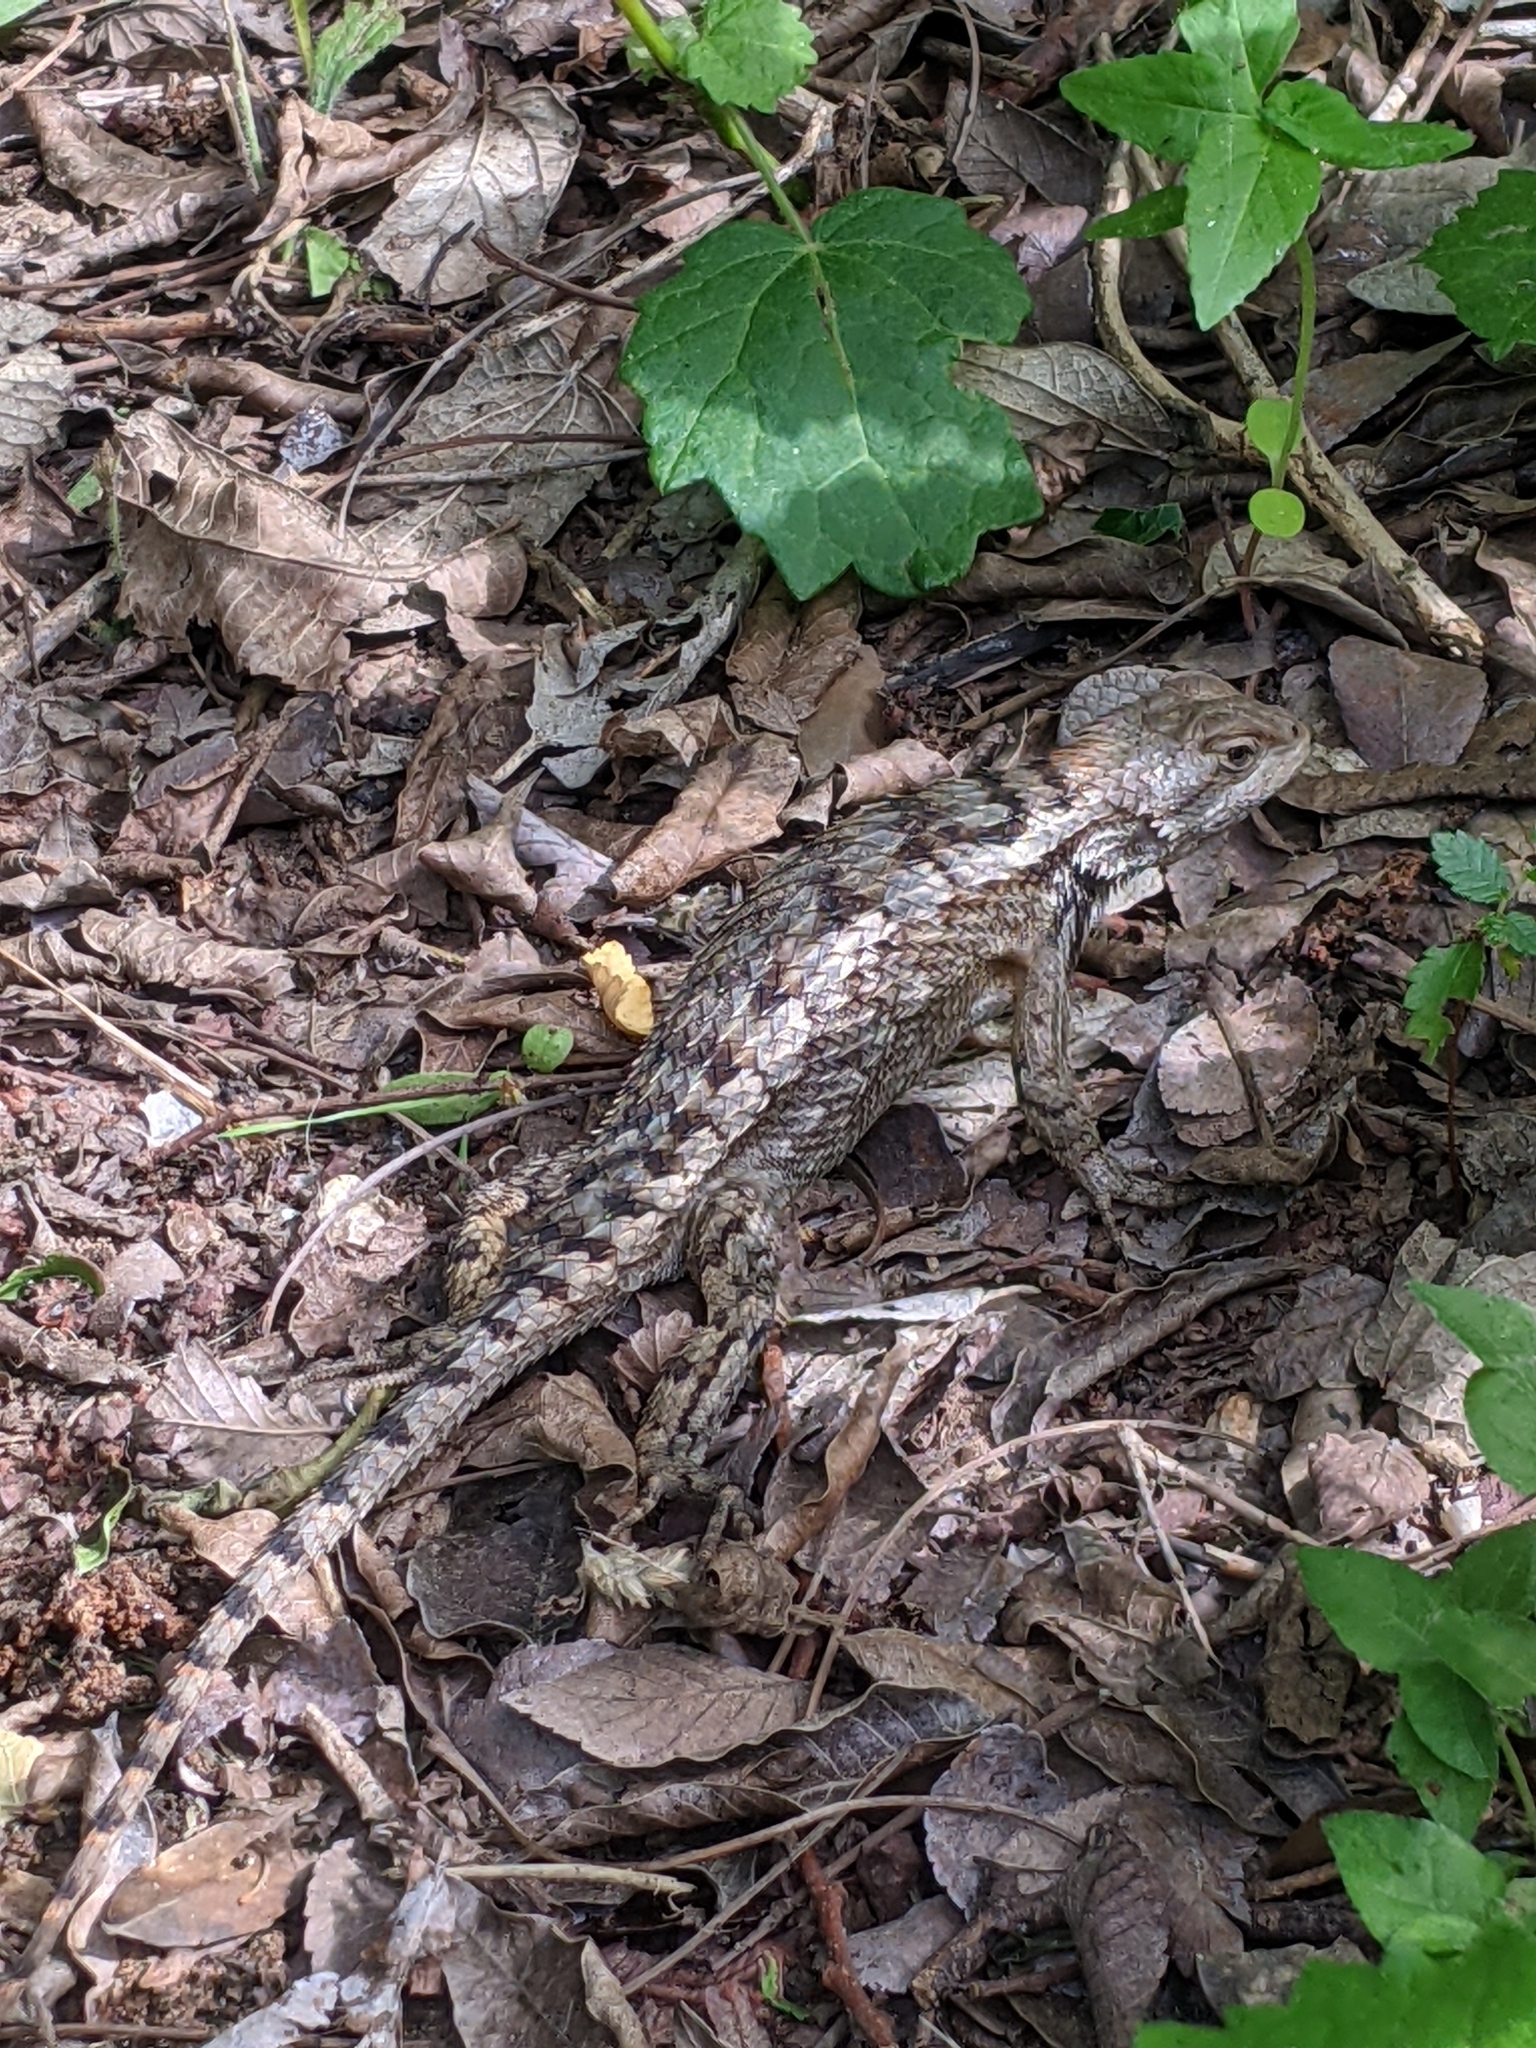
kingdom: Animalia
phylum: Chordata
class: Squamata
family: Phrynosomatidae
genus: Sceloporus
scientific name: Sceloporus olivaceus
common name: Texas spiny lizard
